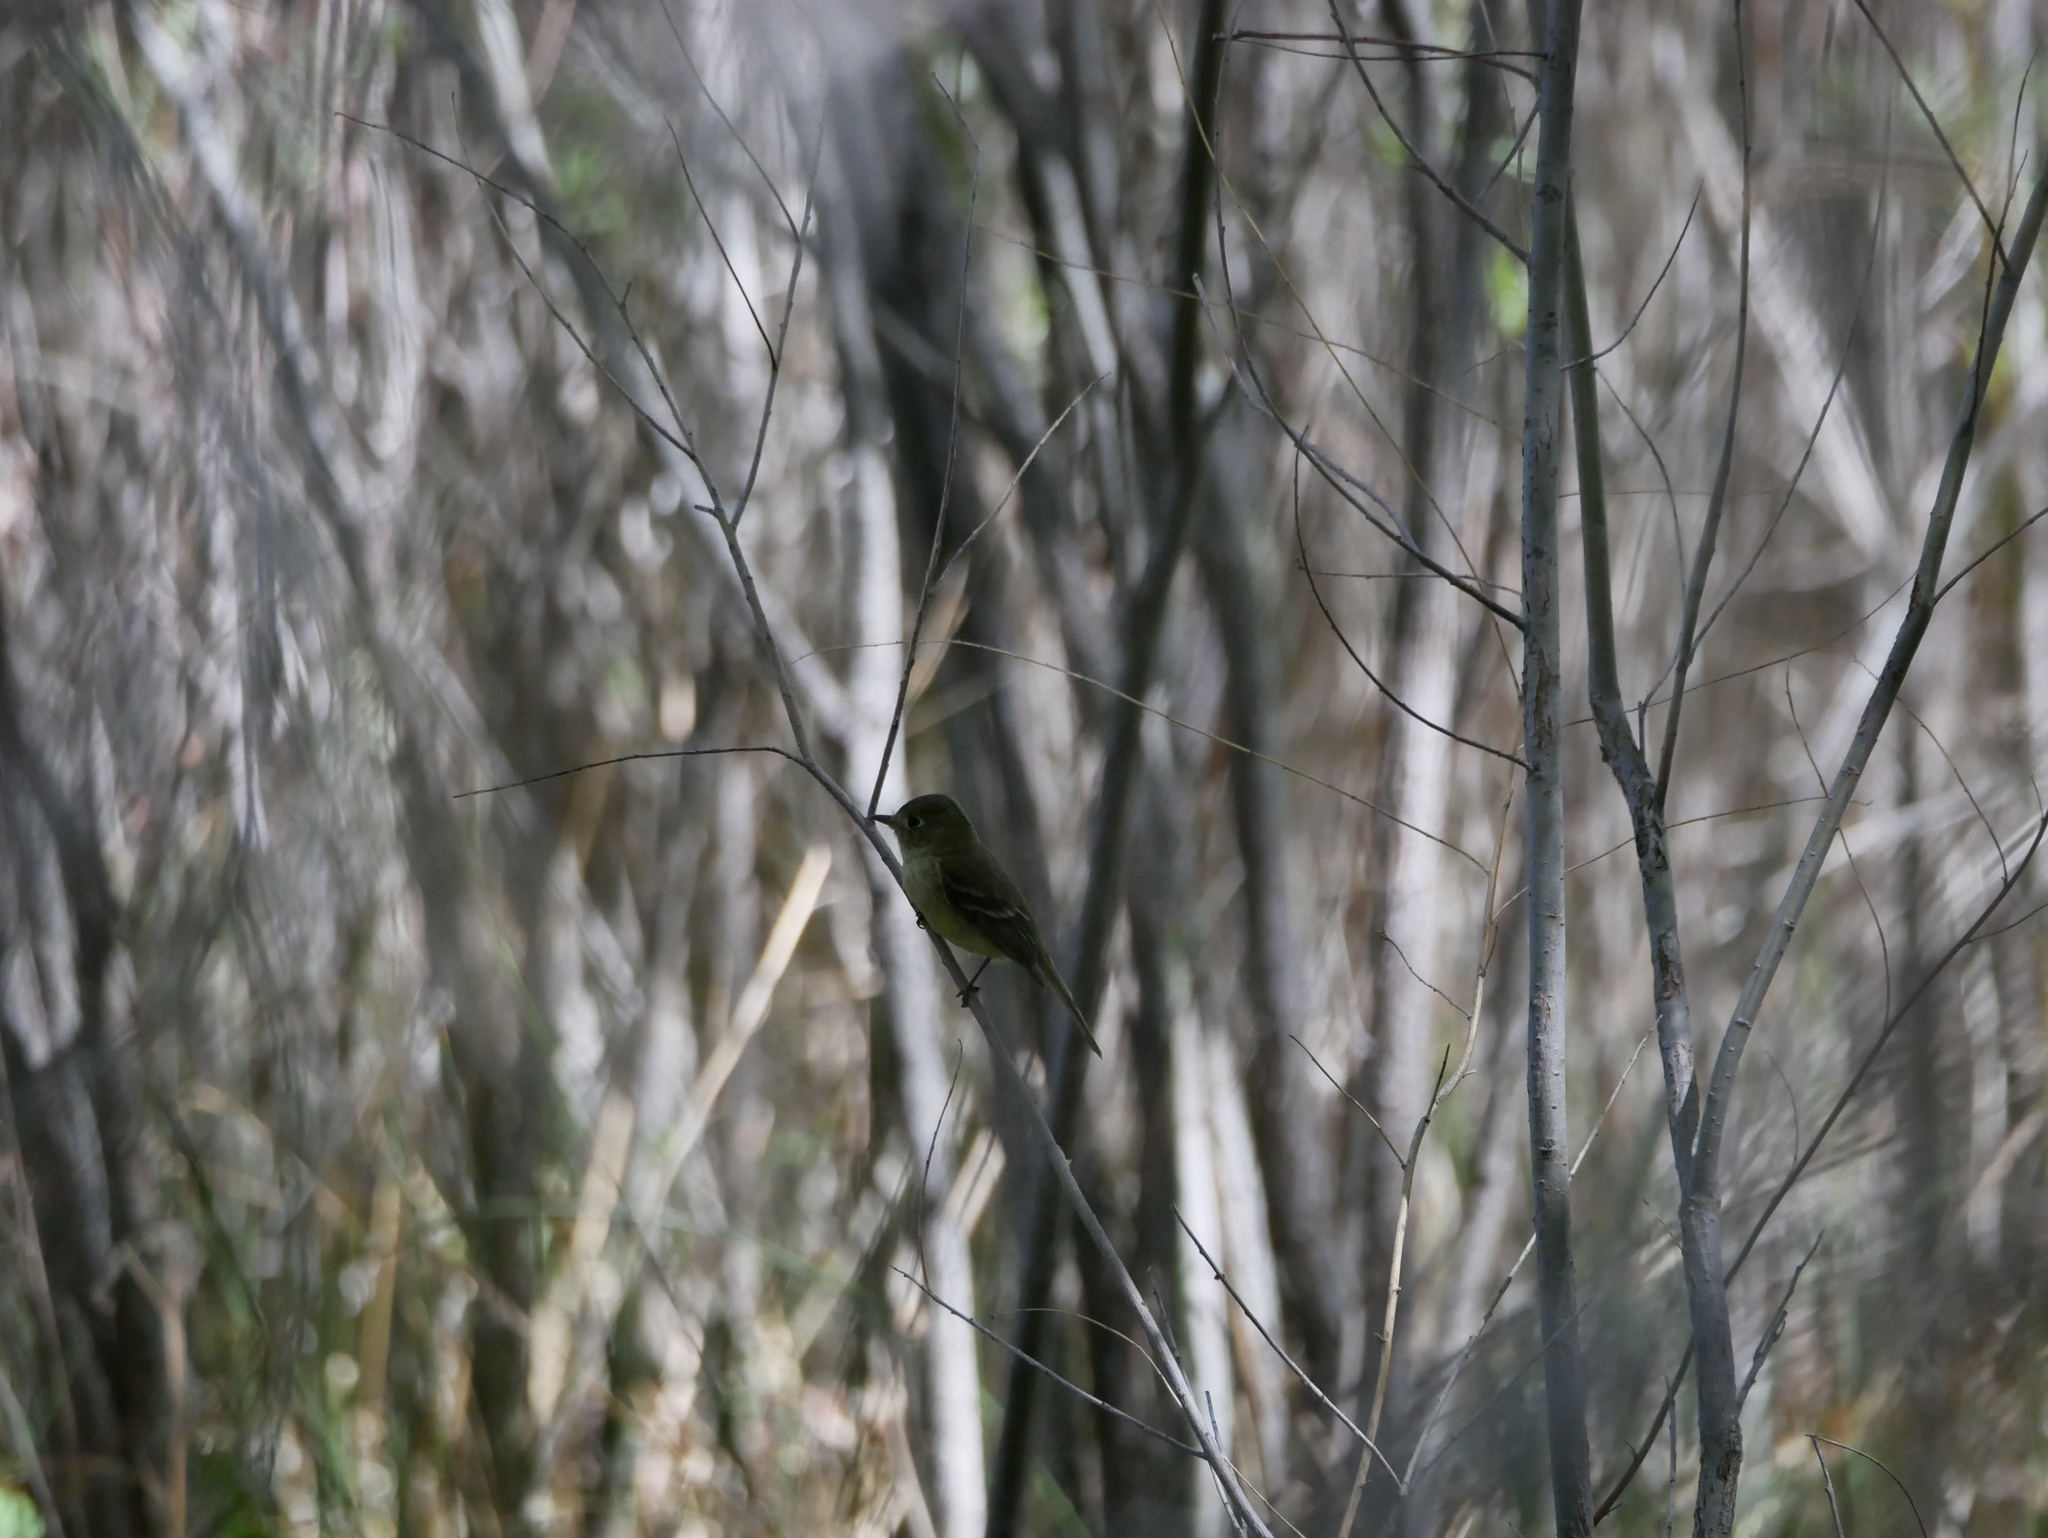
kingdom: Animalia
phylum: Chordata
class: Aves
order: Passeriformes
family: Tyrannidae
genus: Empidonax
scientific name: Empidonax difficilis
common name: Pacific-slope flycatcher
